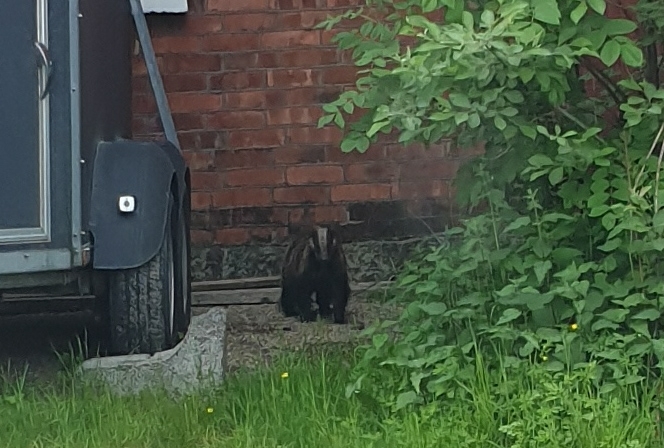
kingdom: Animalia
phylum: Chordata
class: Mammalia
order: Carnivora
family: Mustelidae
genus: Meles
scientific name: Meles meles
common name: Eurasian badger
